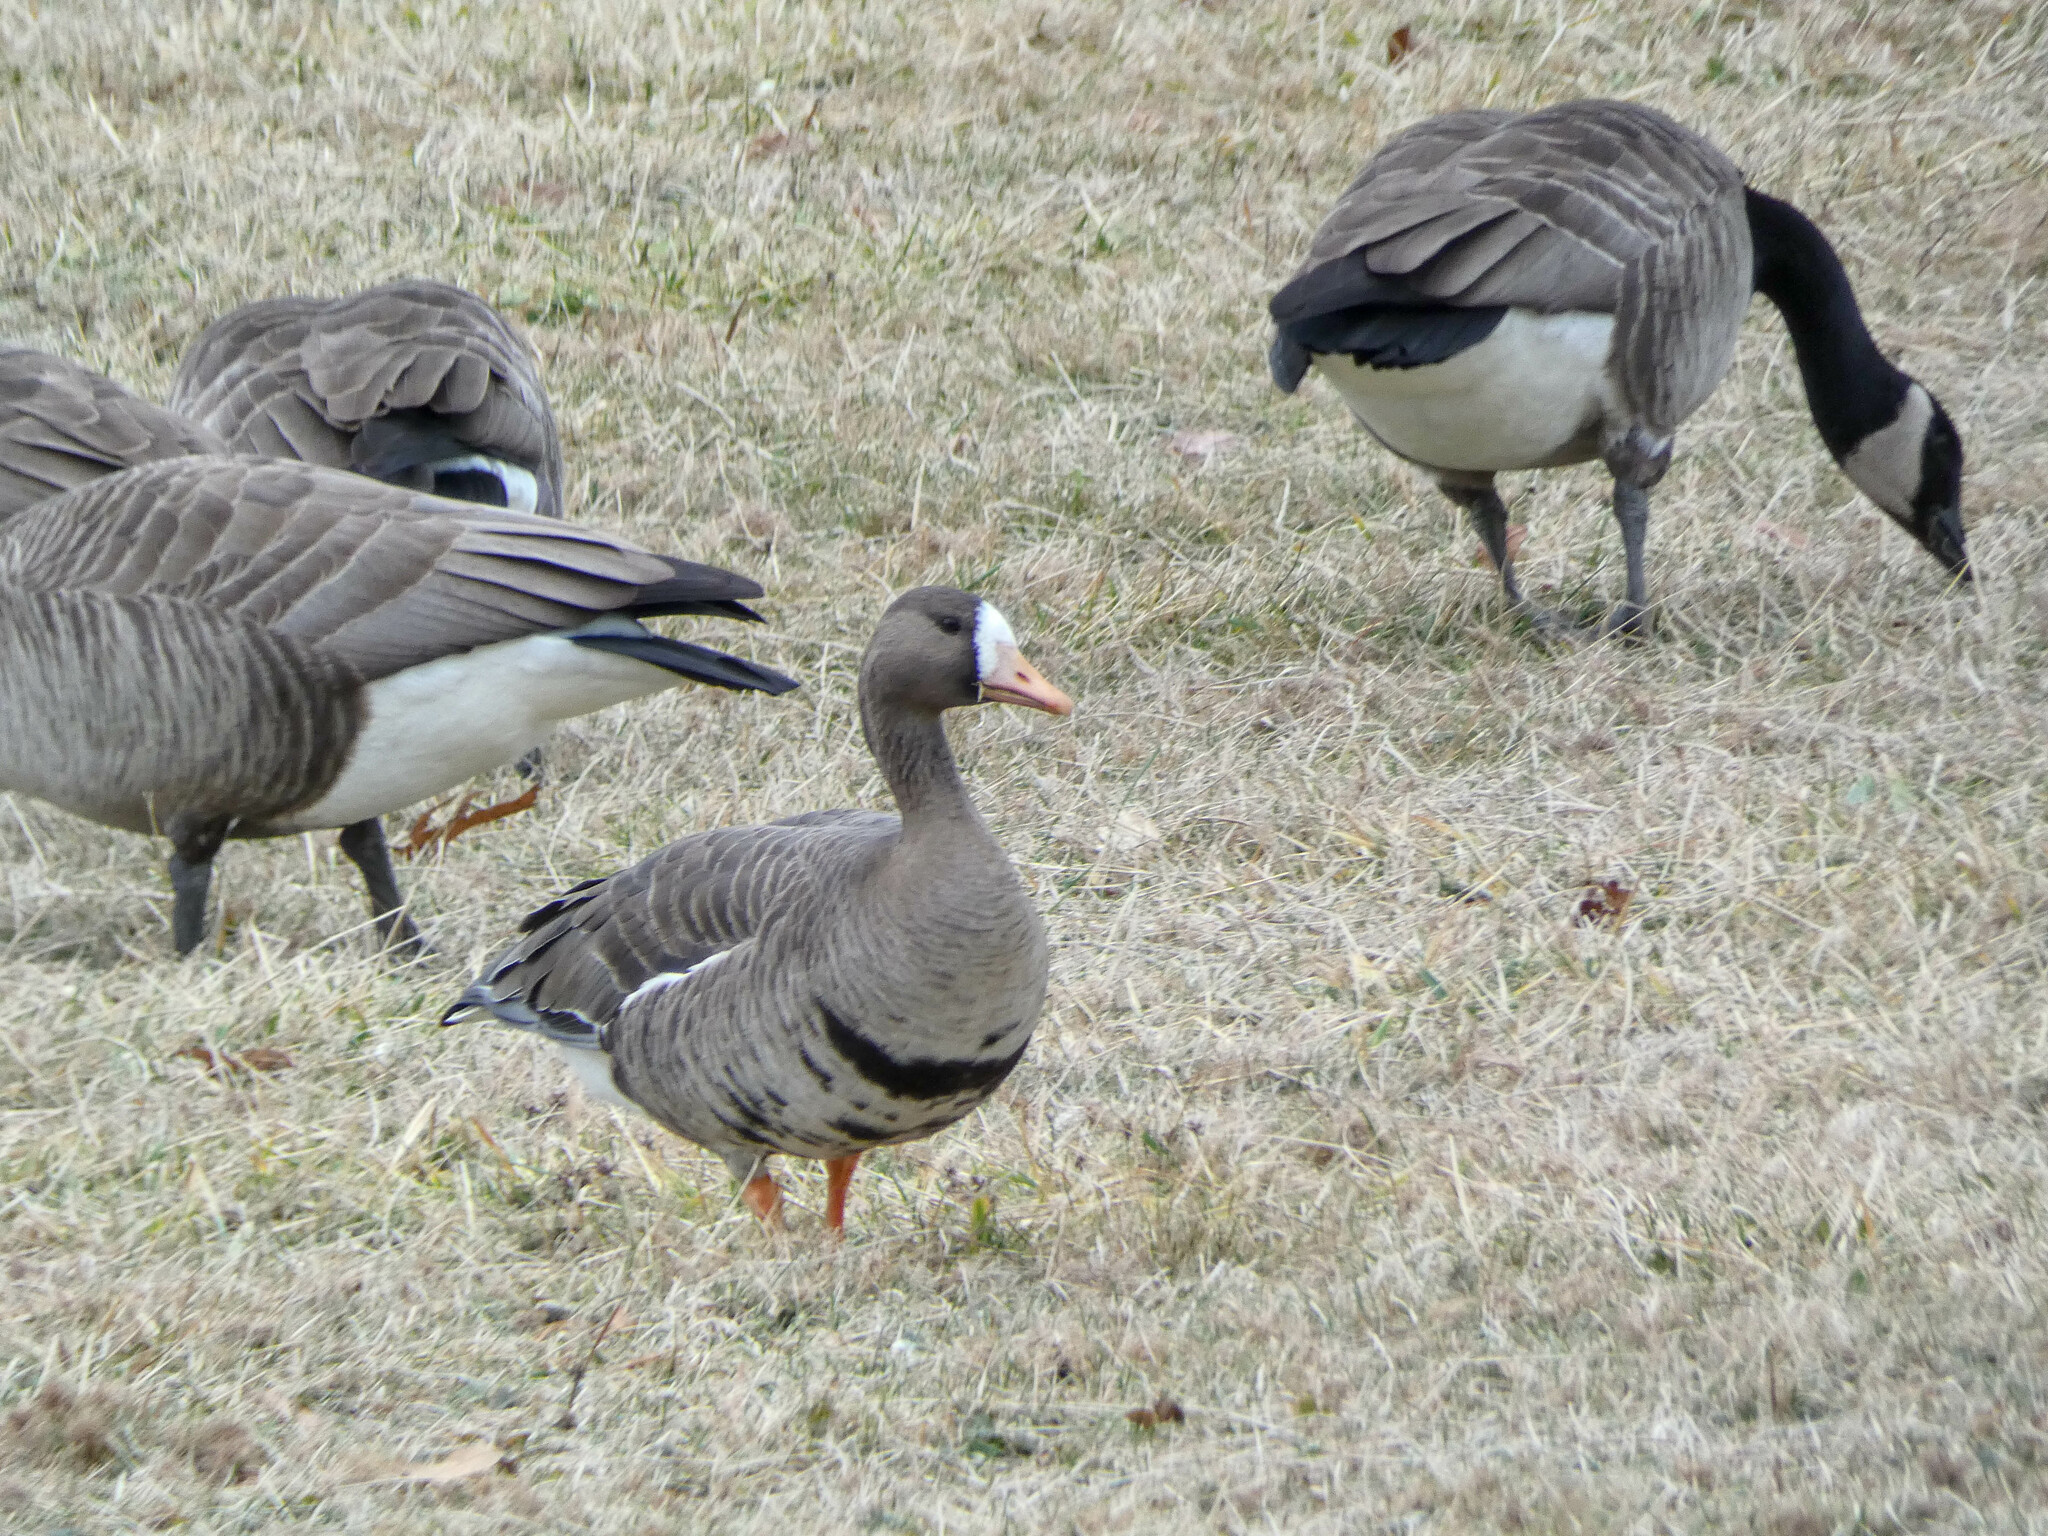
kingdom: Animalia
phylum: Chordata
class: Aves
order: Anseriformes
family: Anatidae
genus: Anser
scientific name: Anser albifrons
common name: Greater white-fronted goose
